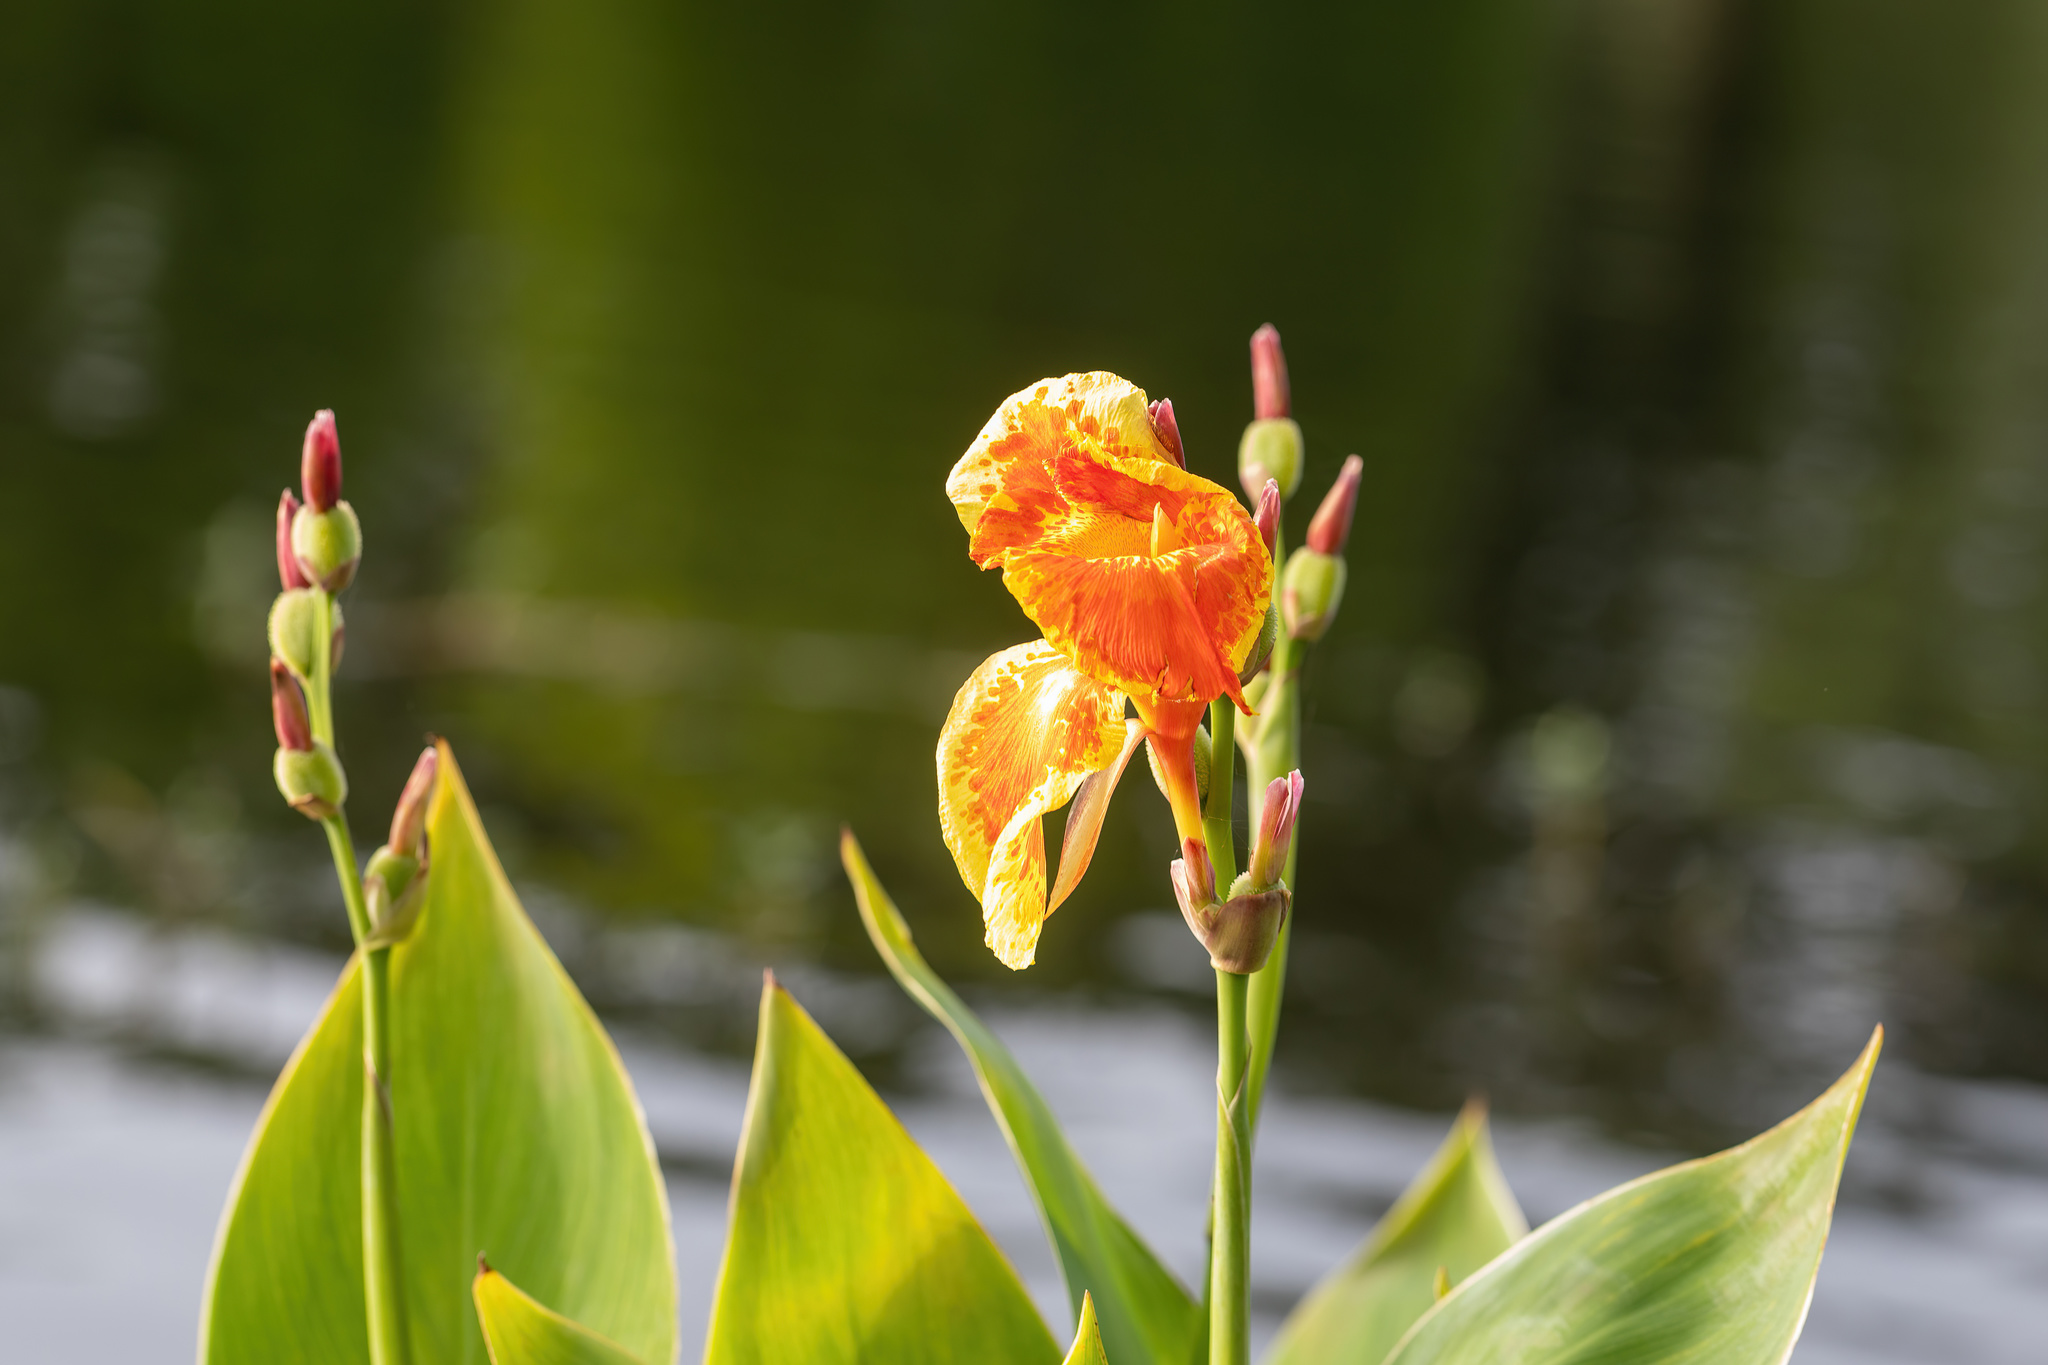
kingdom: Plantae
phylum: Tracheophyta
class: Liliopsida
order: Zingiberales
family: Cannaceae
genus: Canna
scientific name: Canna hybrida
